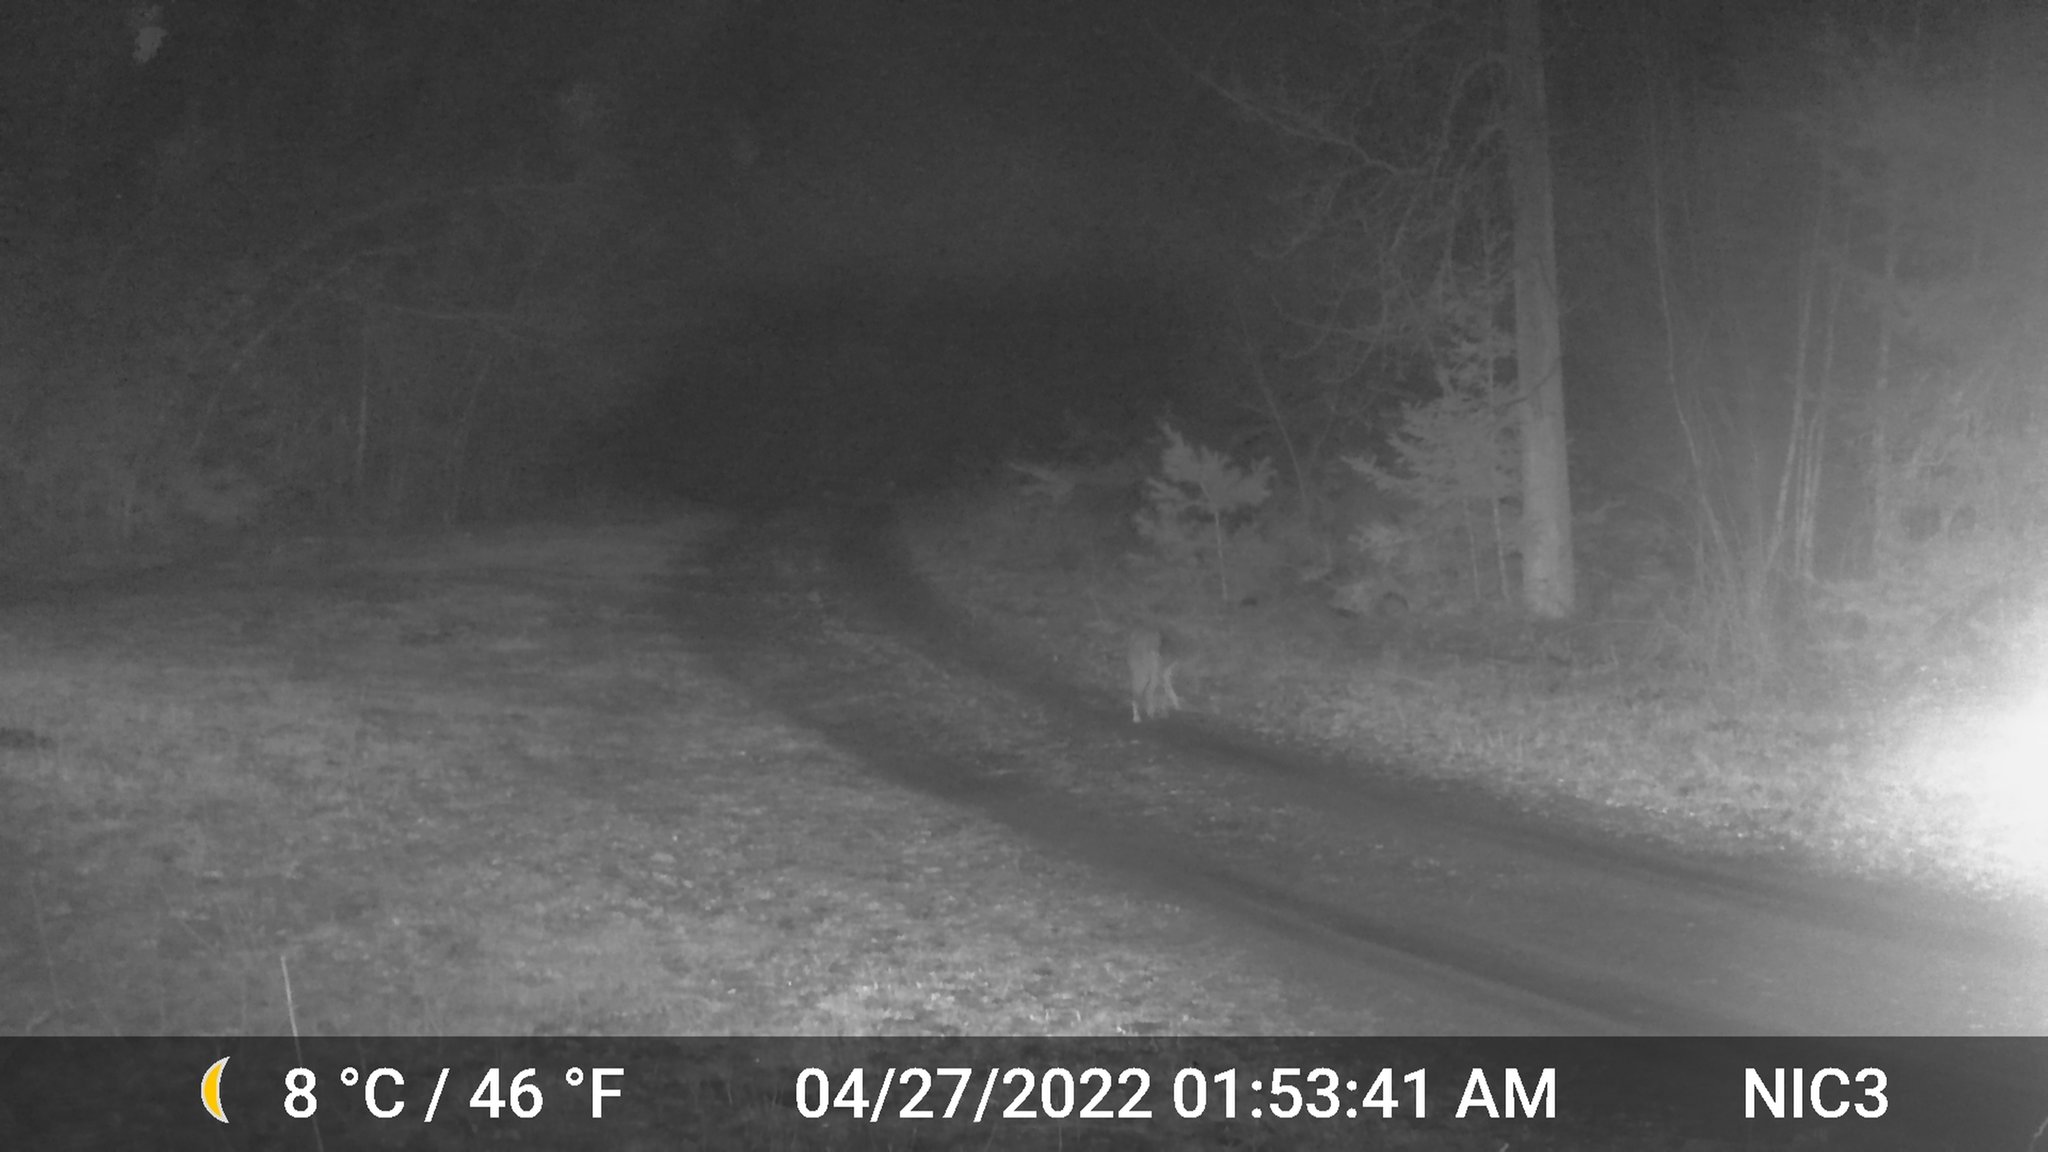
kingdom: Animalia
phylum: Chordata
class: Mammalia
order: Carnivora
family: Canidae
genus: Canis
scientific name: Canis latrans
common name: Coyote
